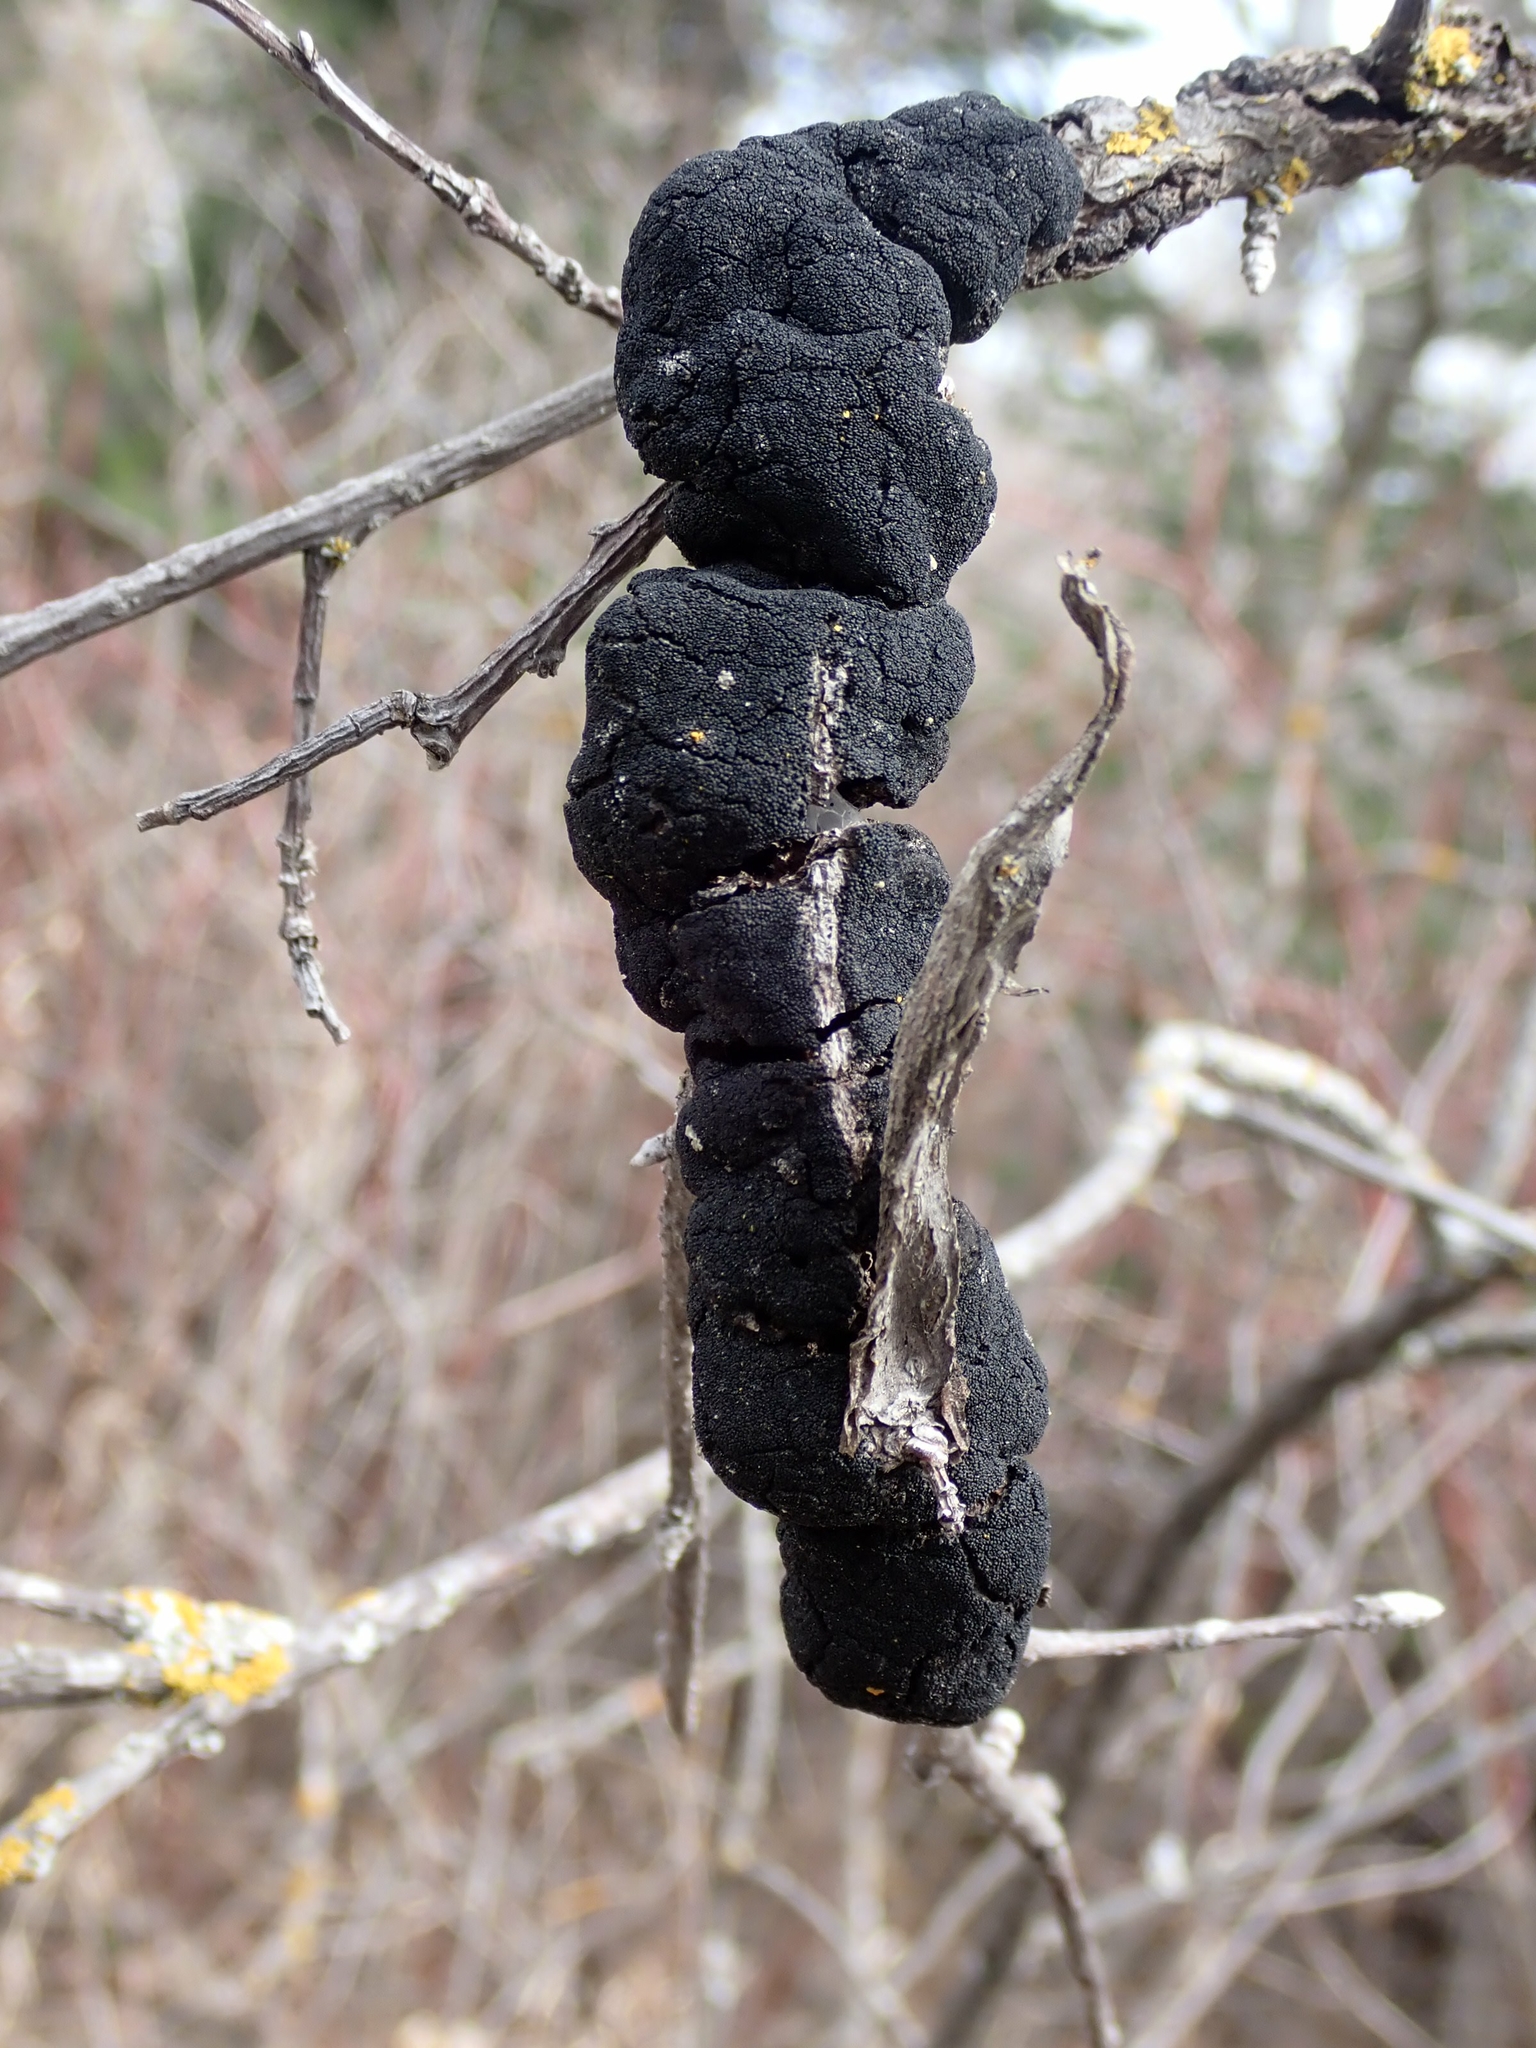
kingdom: Fungi
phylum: Ascomycota
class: Dothideomycetes
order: Venturiales
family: Venturiaceae
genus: Apiosporina
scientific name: Apiosporina morbosa
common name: Black knot
